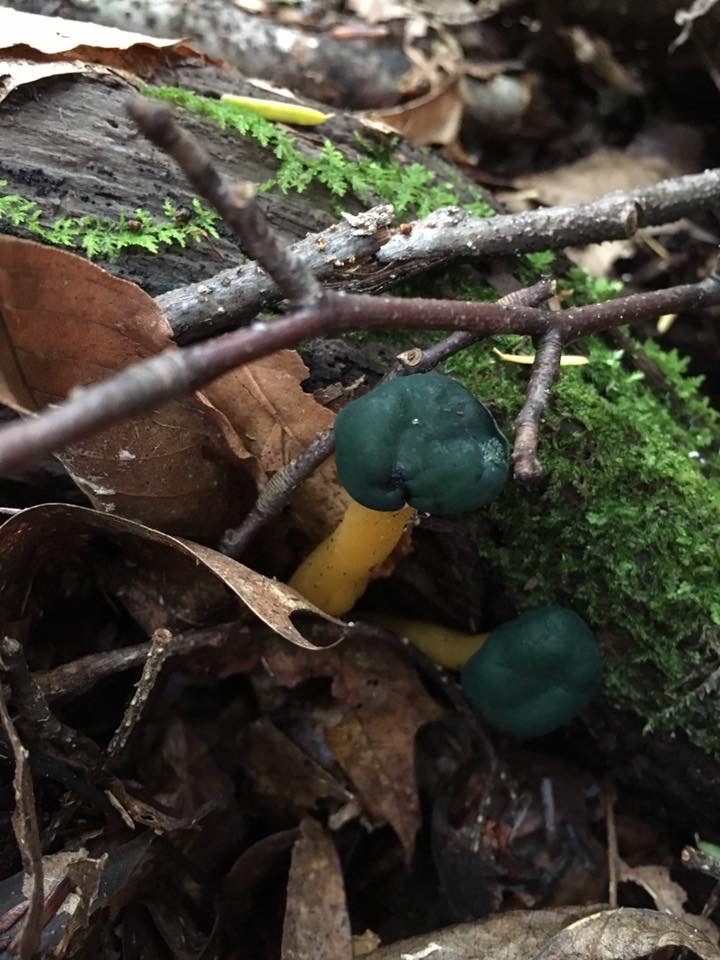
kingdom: Fungi
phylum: Ascomycota
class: Leotiomycetes
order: Leotiales
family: Leotiaceae
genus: Leotia
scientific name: Leotia lubrica
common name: Jellybaby
